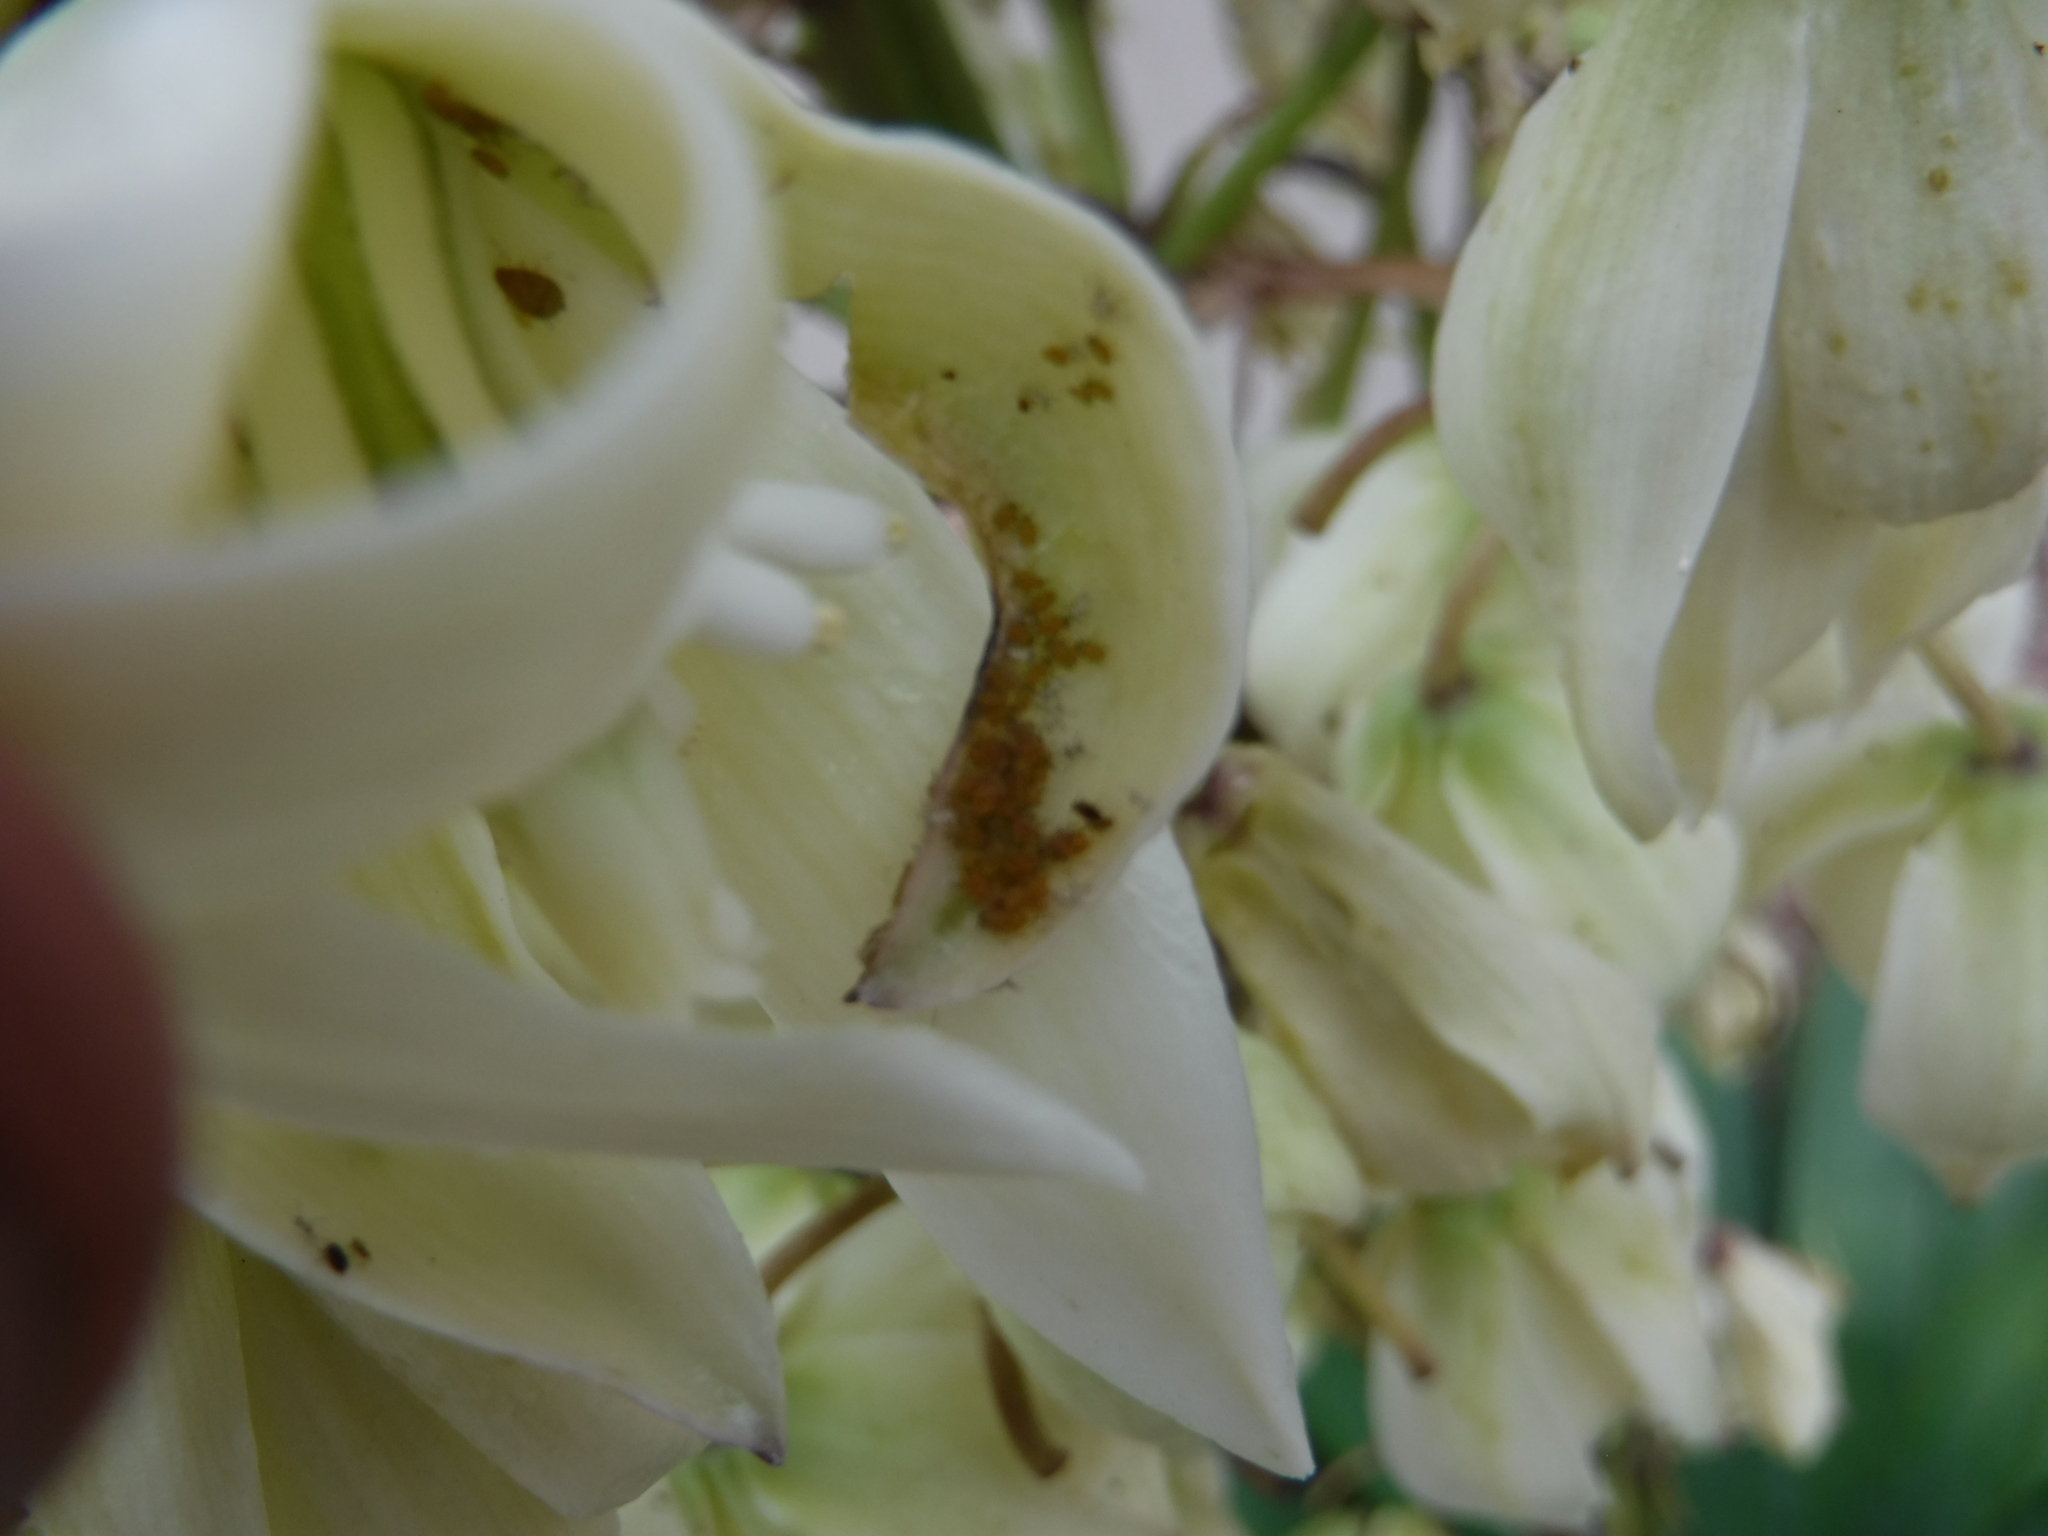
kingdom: Animalia
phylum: Arthropoda
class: Insecta
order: Hemiptera
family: Aphididae
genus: Aphis
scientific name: Aphis nerii
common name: Oleander aphid
